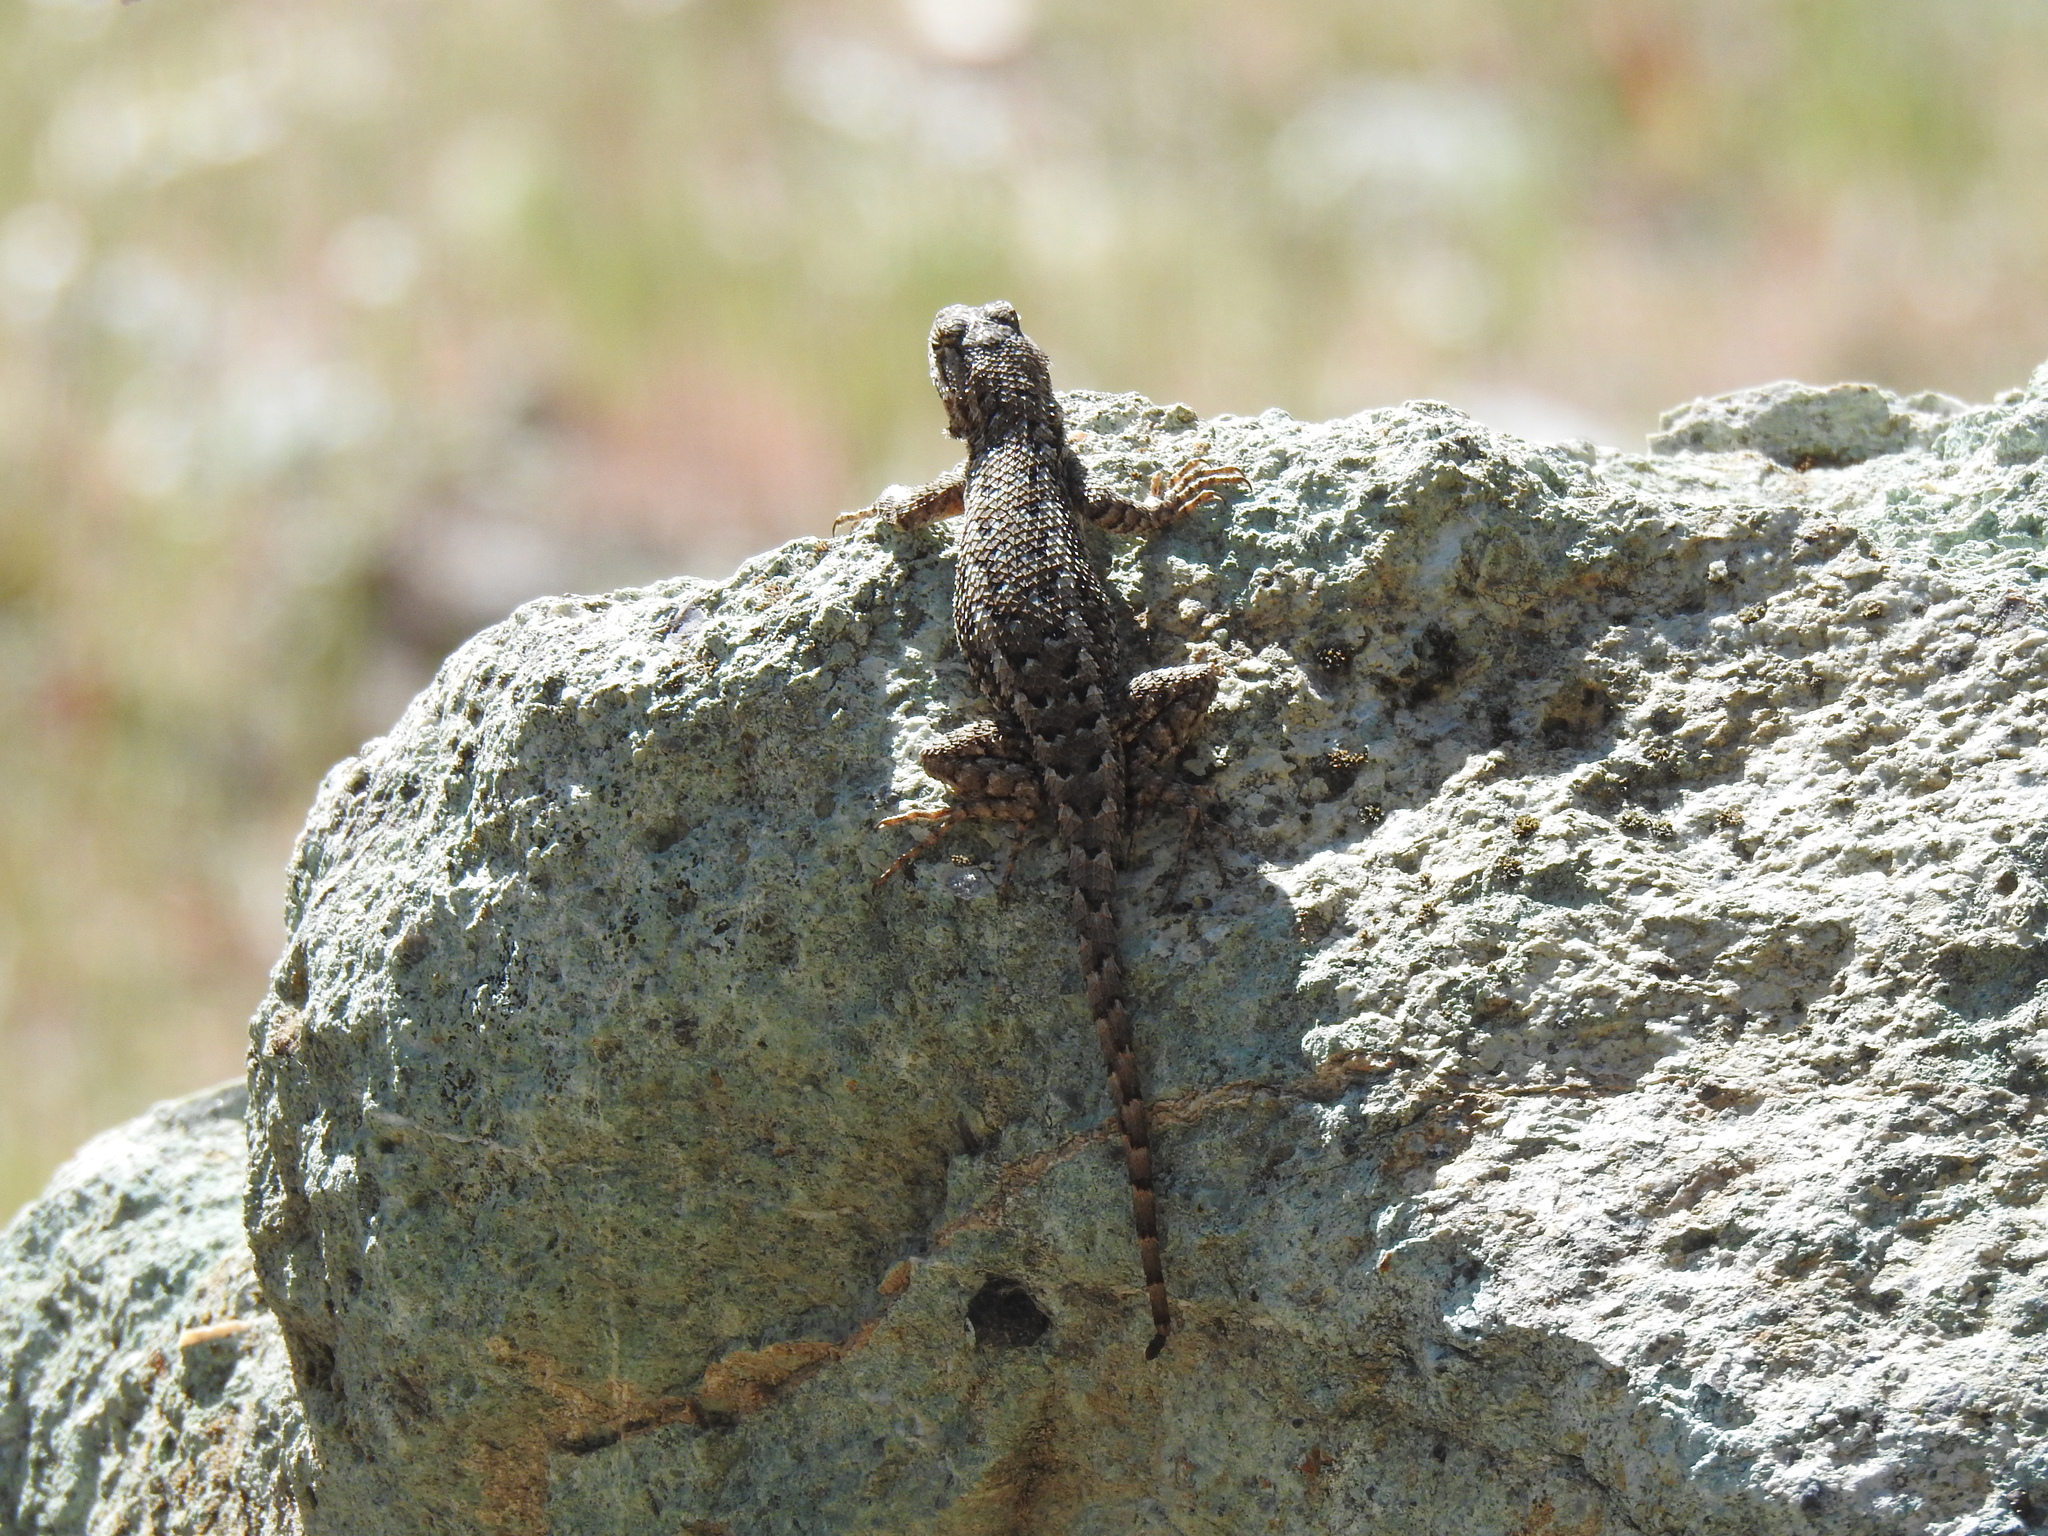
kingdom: Animalia
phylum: Chordata
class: Squamata
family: Phrynosomatidae
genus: Sceloporus
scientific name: Sceloporus occidentalis
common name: Western fence lizard
